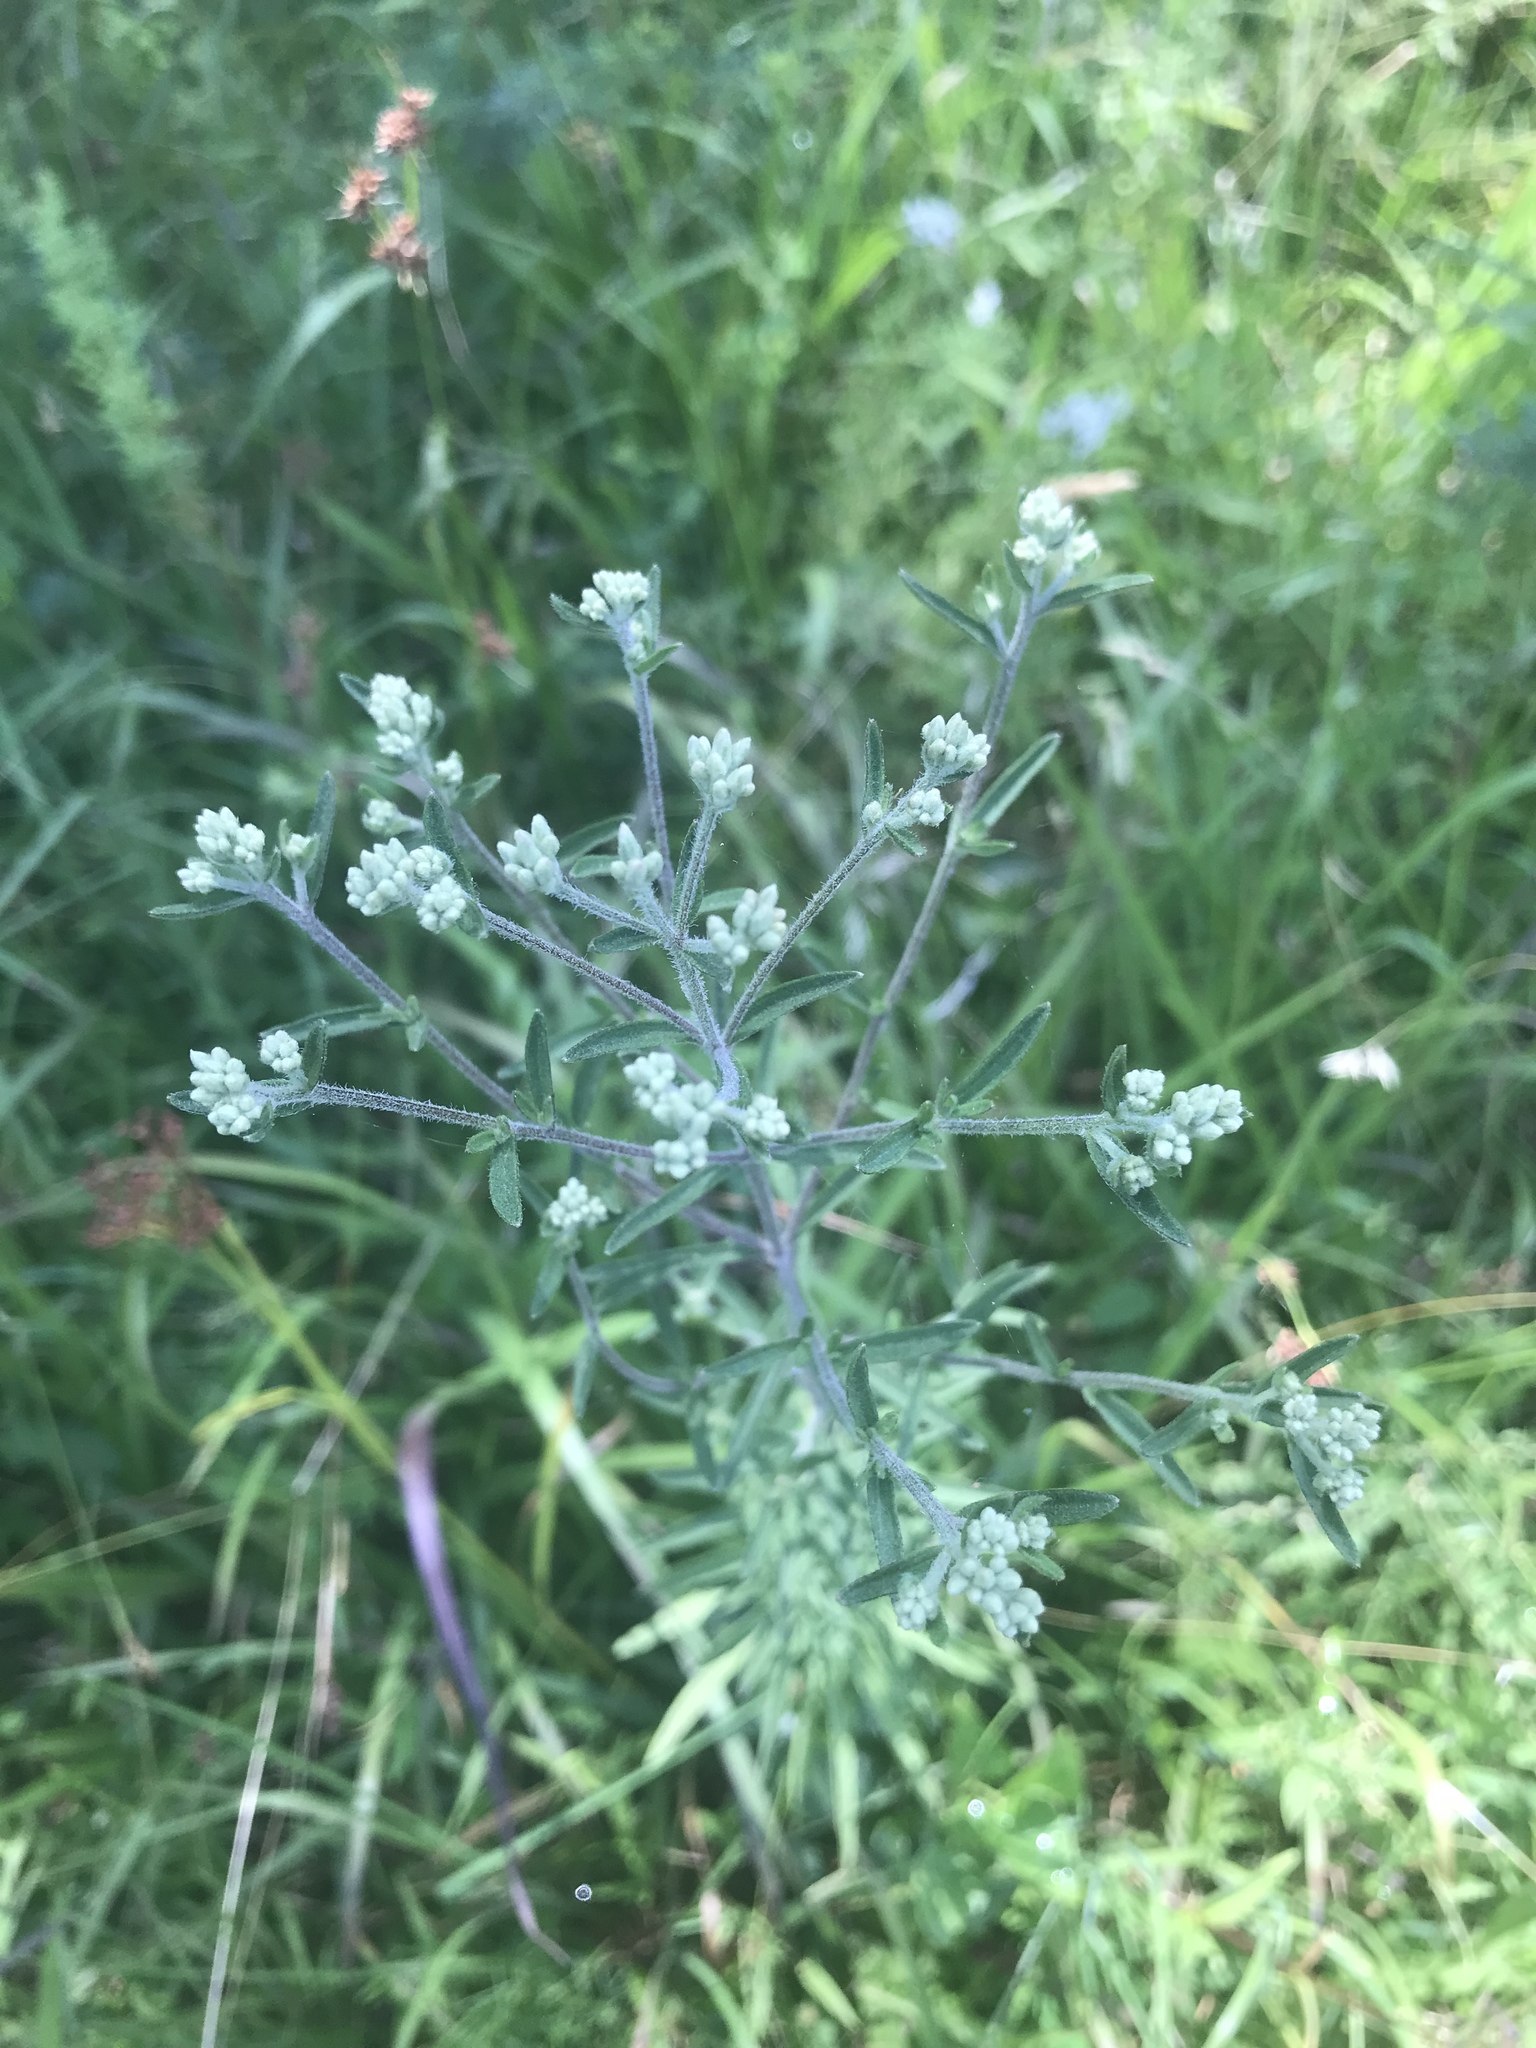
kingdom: Plantae
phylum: Tracheophyta
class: Magnoliopsida
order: Asterales
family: Asteraceae
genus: Eupatorium
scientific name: Eupatorium torreyanum
